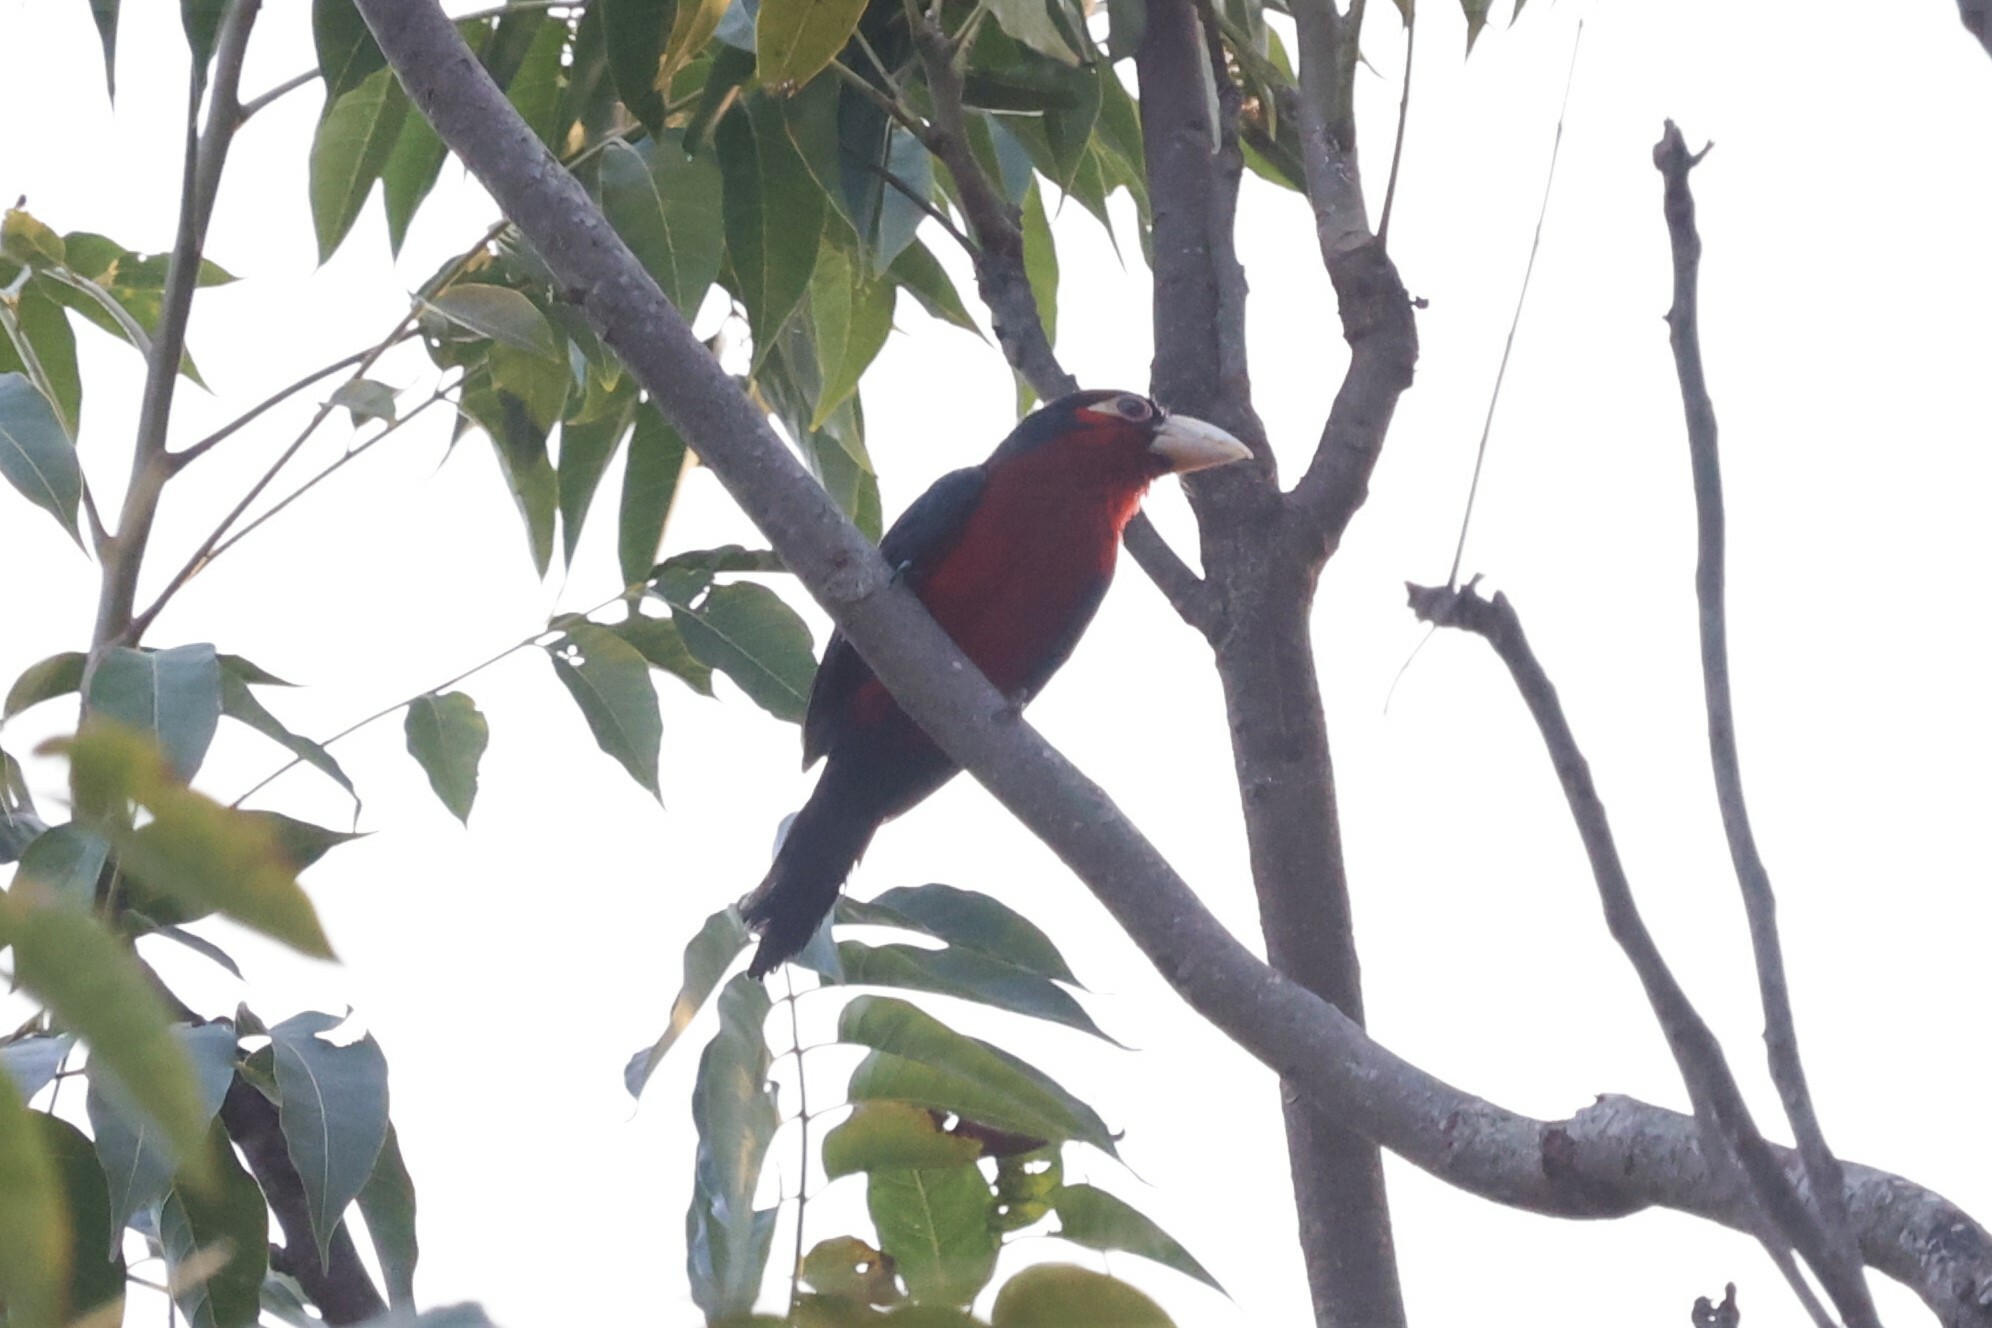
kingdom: Animalia
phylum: Chordata
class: Aves
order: Piciformes
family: Lybiidae
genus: Lybius
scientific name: Lybius bidentatus
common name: Double-toothed barbet
